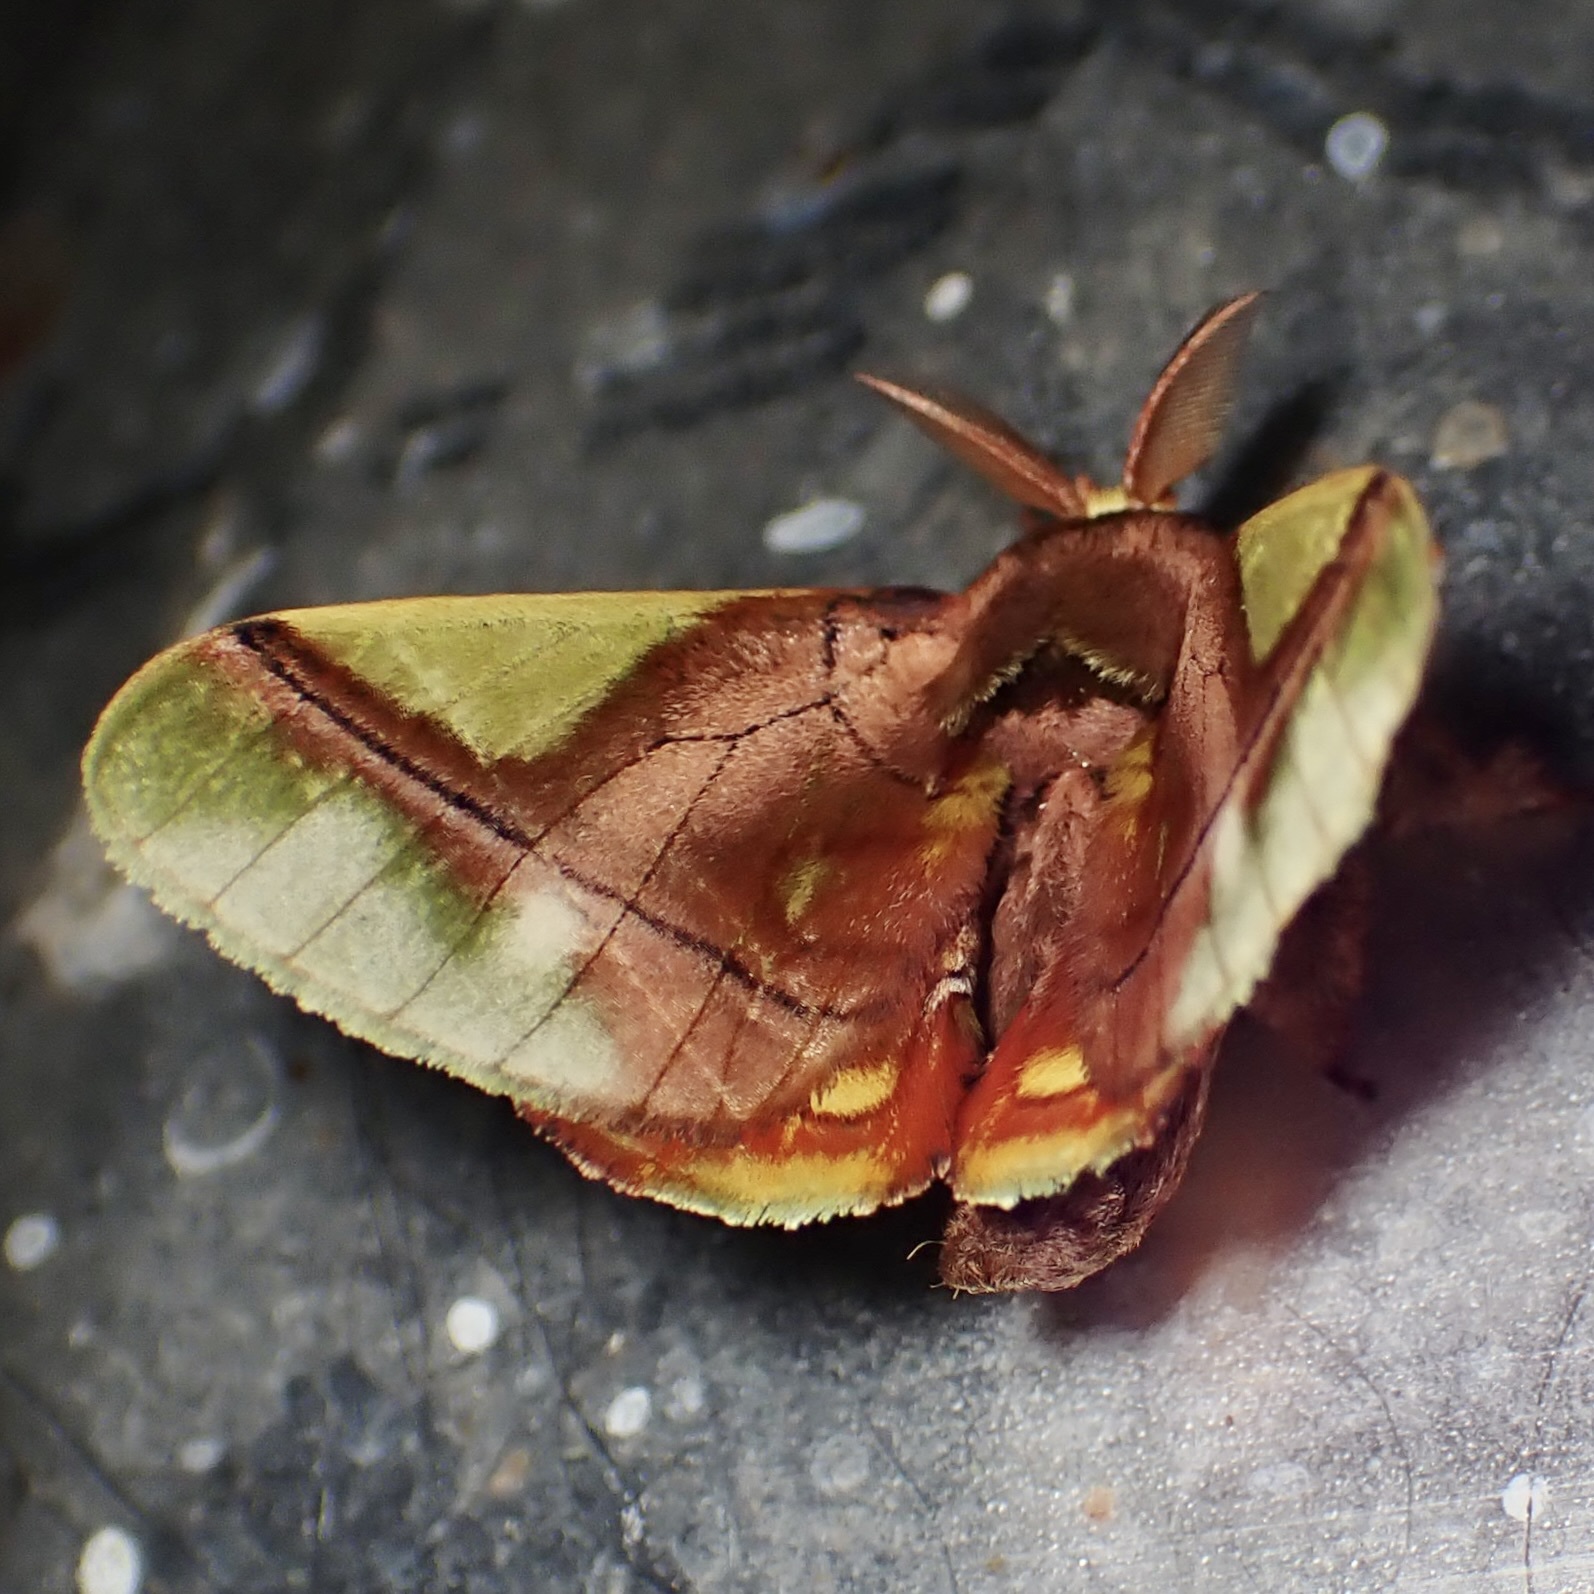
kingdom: Animalia
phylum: Arthropoda
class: Insecta
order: Lepidoptera
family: Bombycidae
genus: Epia
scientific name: Epia muscosa
